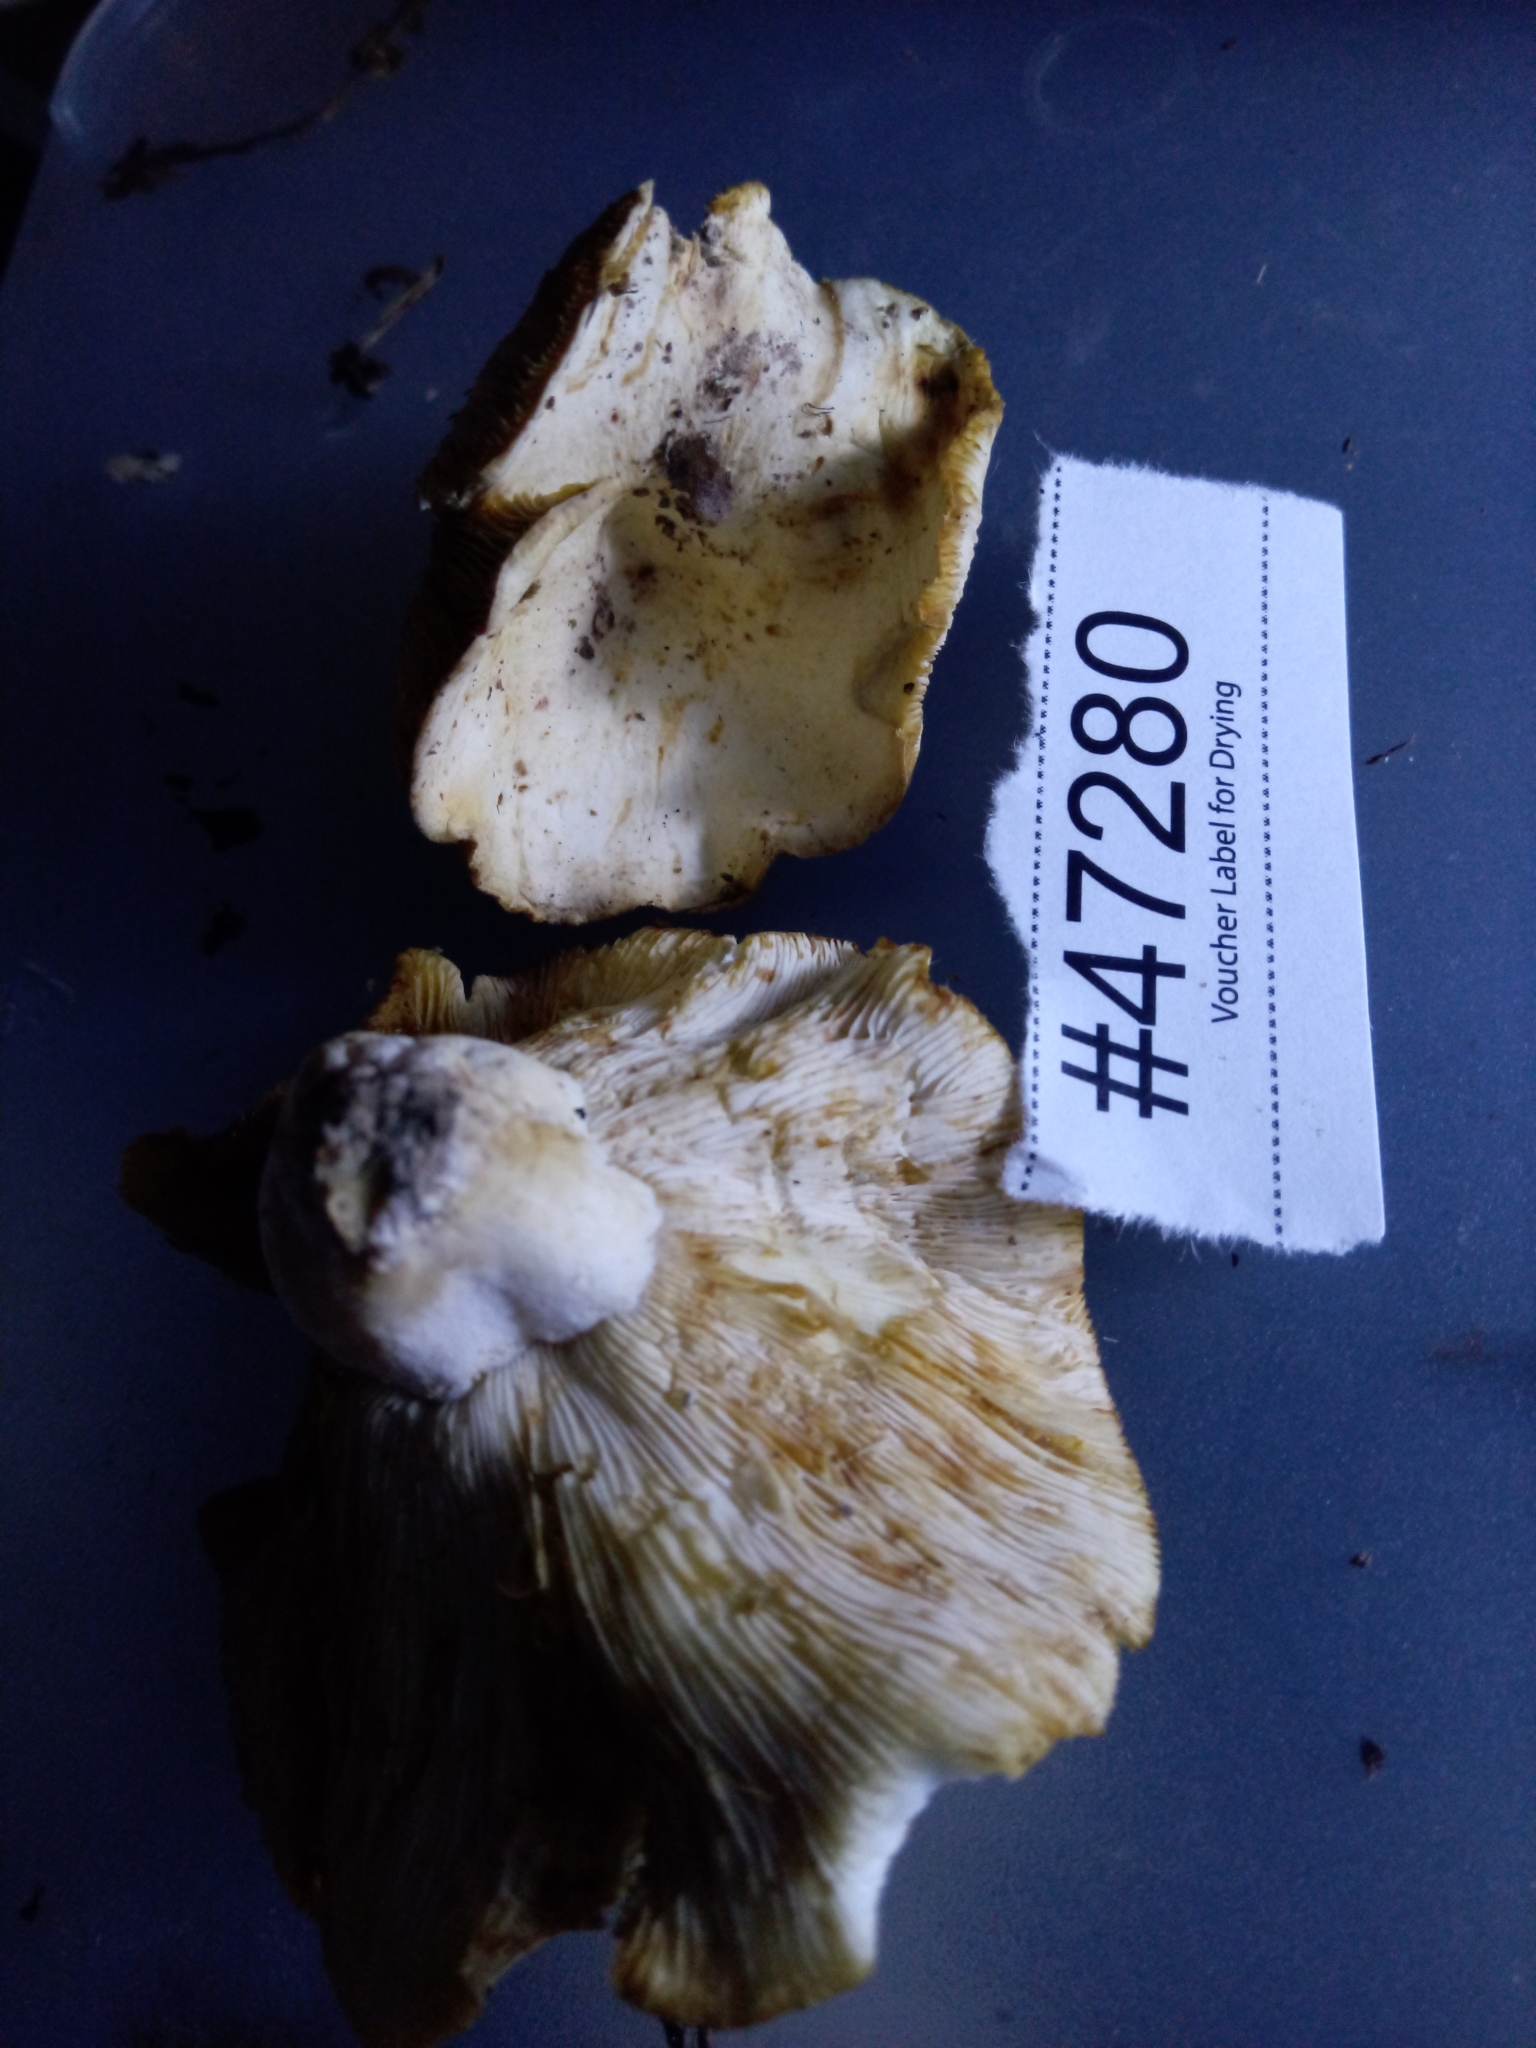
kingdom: Fungi
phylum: Basidiomycota
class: Agaricomycetes
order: Russulales
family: Russulaceae
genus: Lactifluus
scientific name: Lactifluus glaucescens
